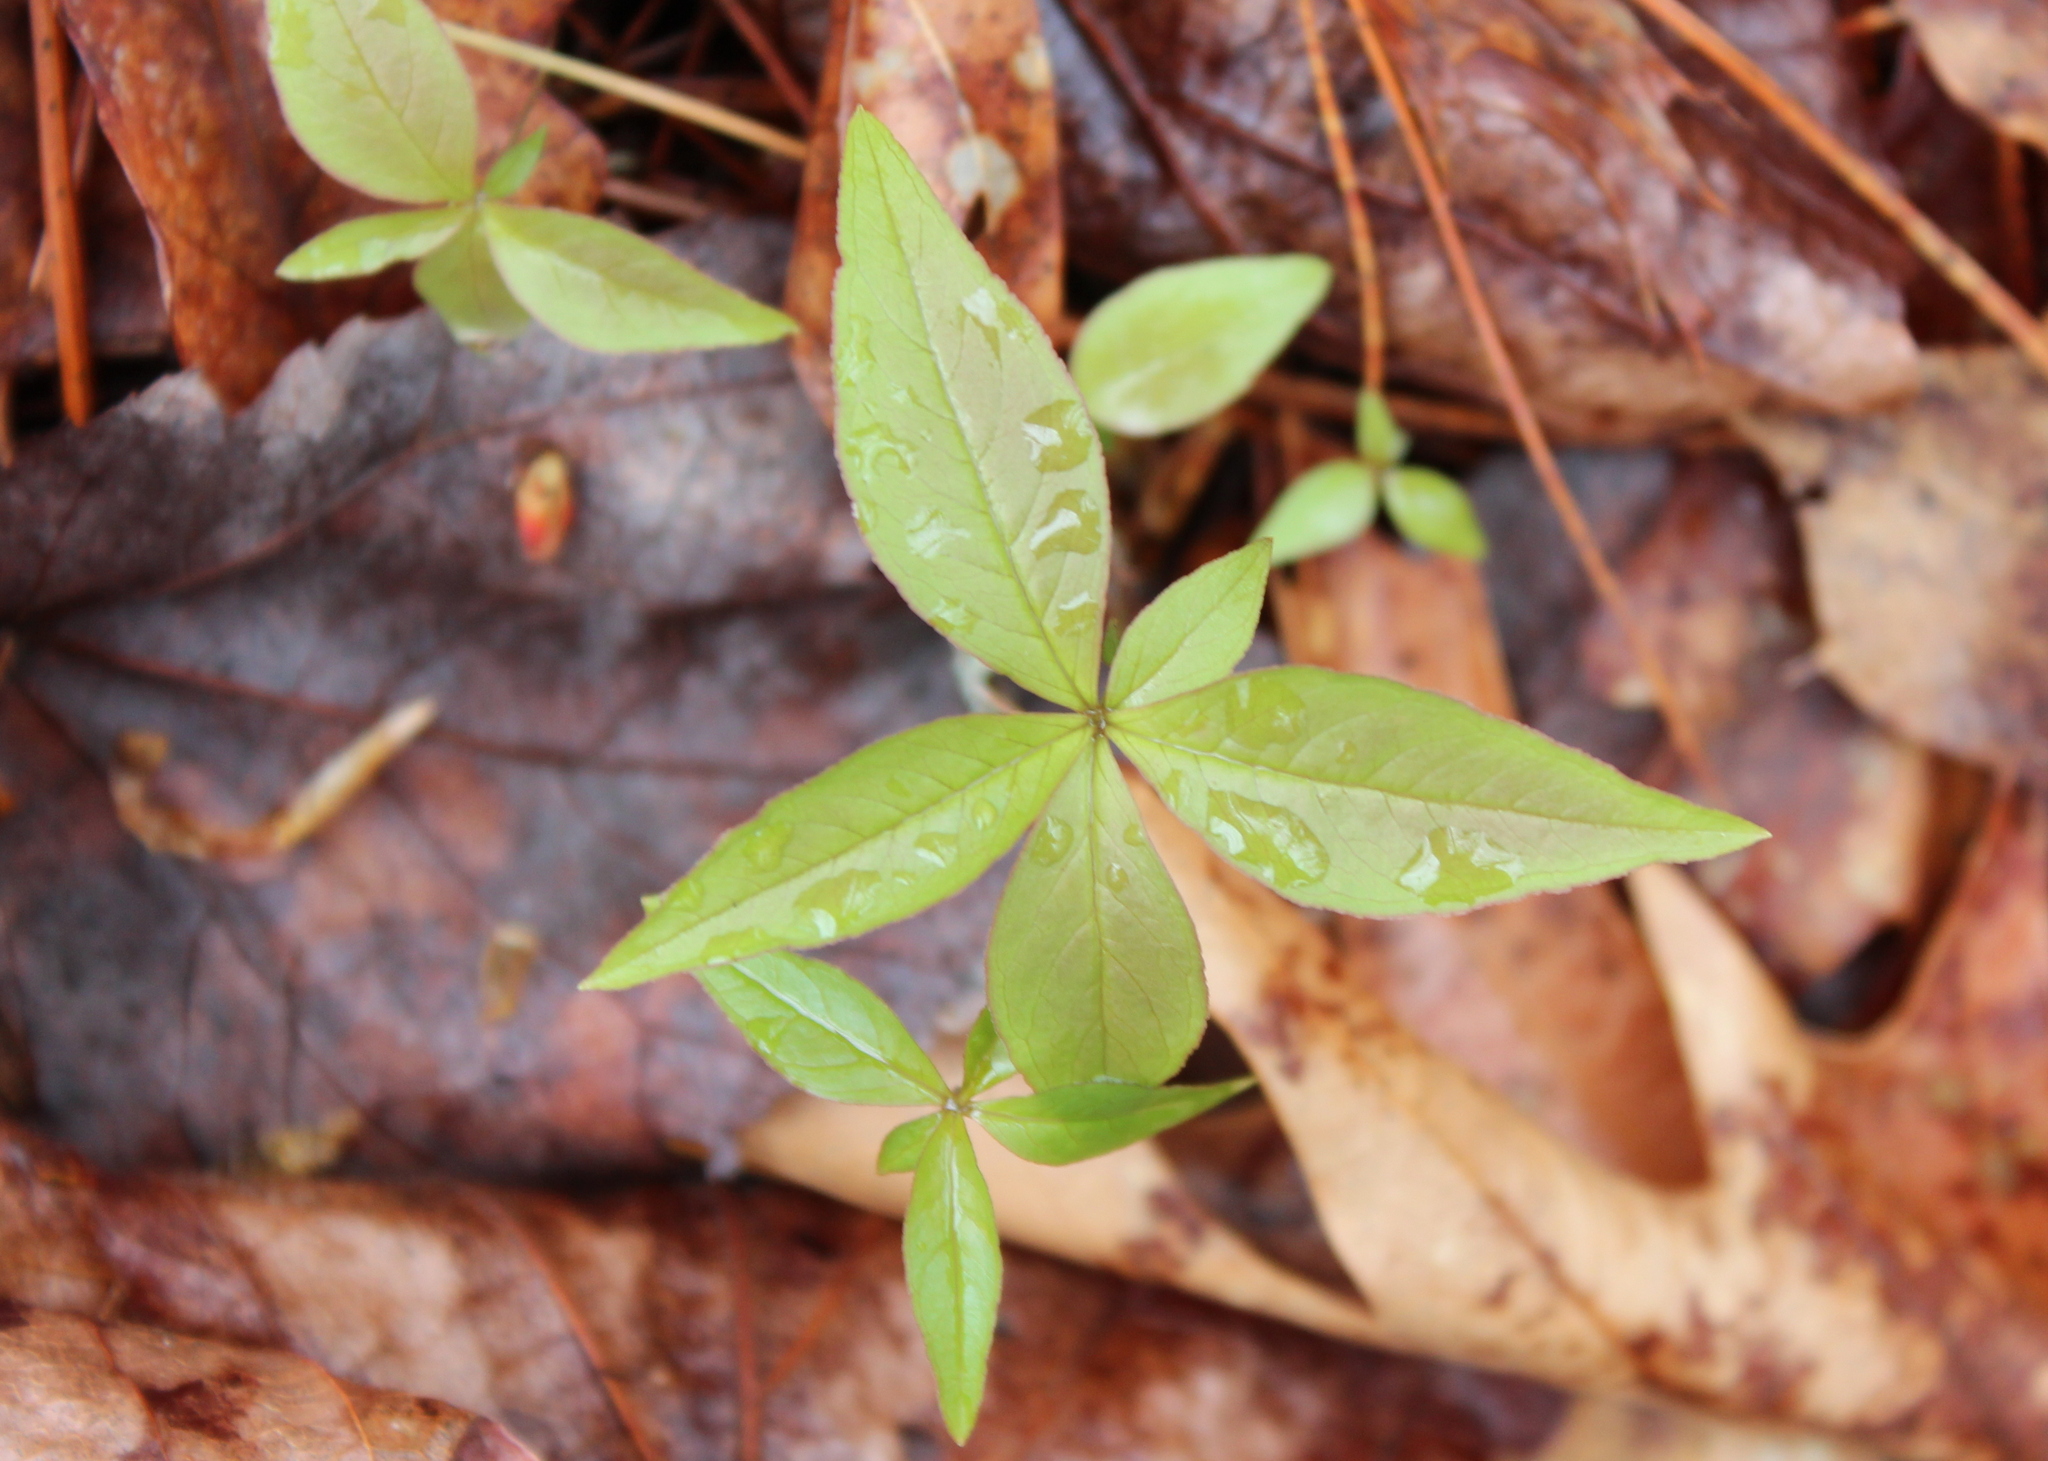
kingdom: Plantae
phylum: Tracheophyta
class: Magnoliopsida
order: Ericales
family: Primulaceae
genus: Lysimachia
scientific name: Lysimachia borealis
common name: American starflower
